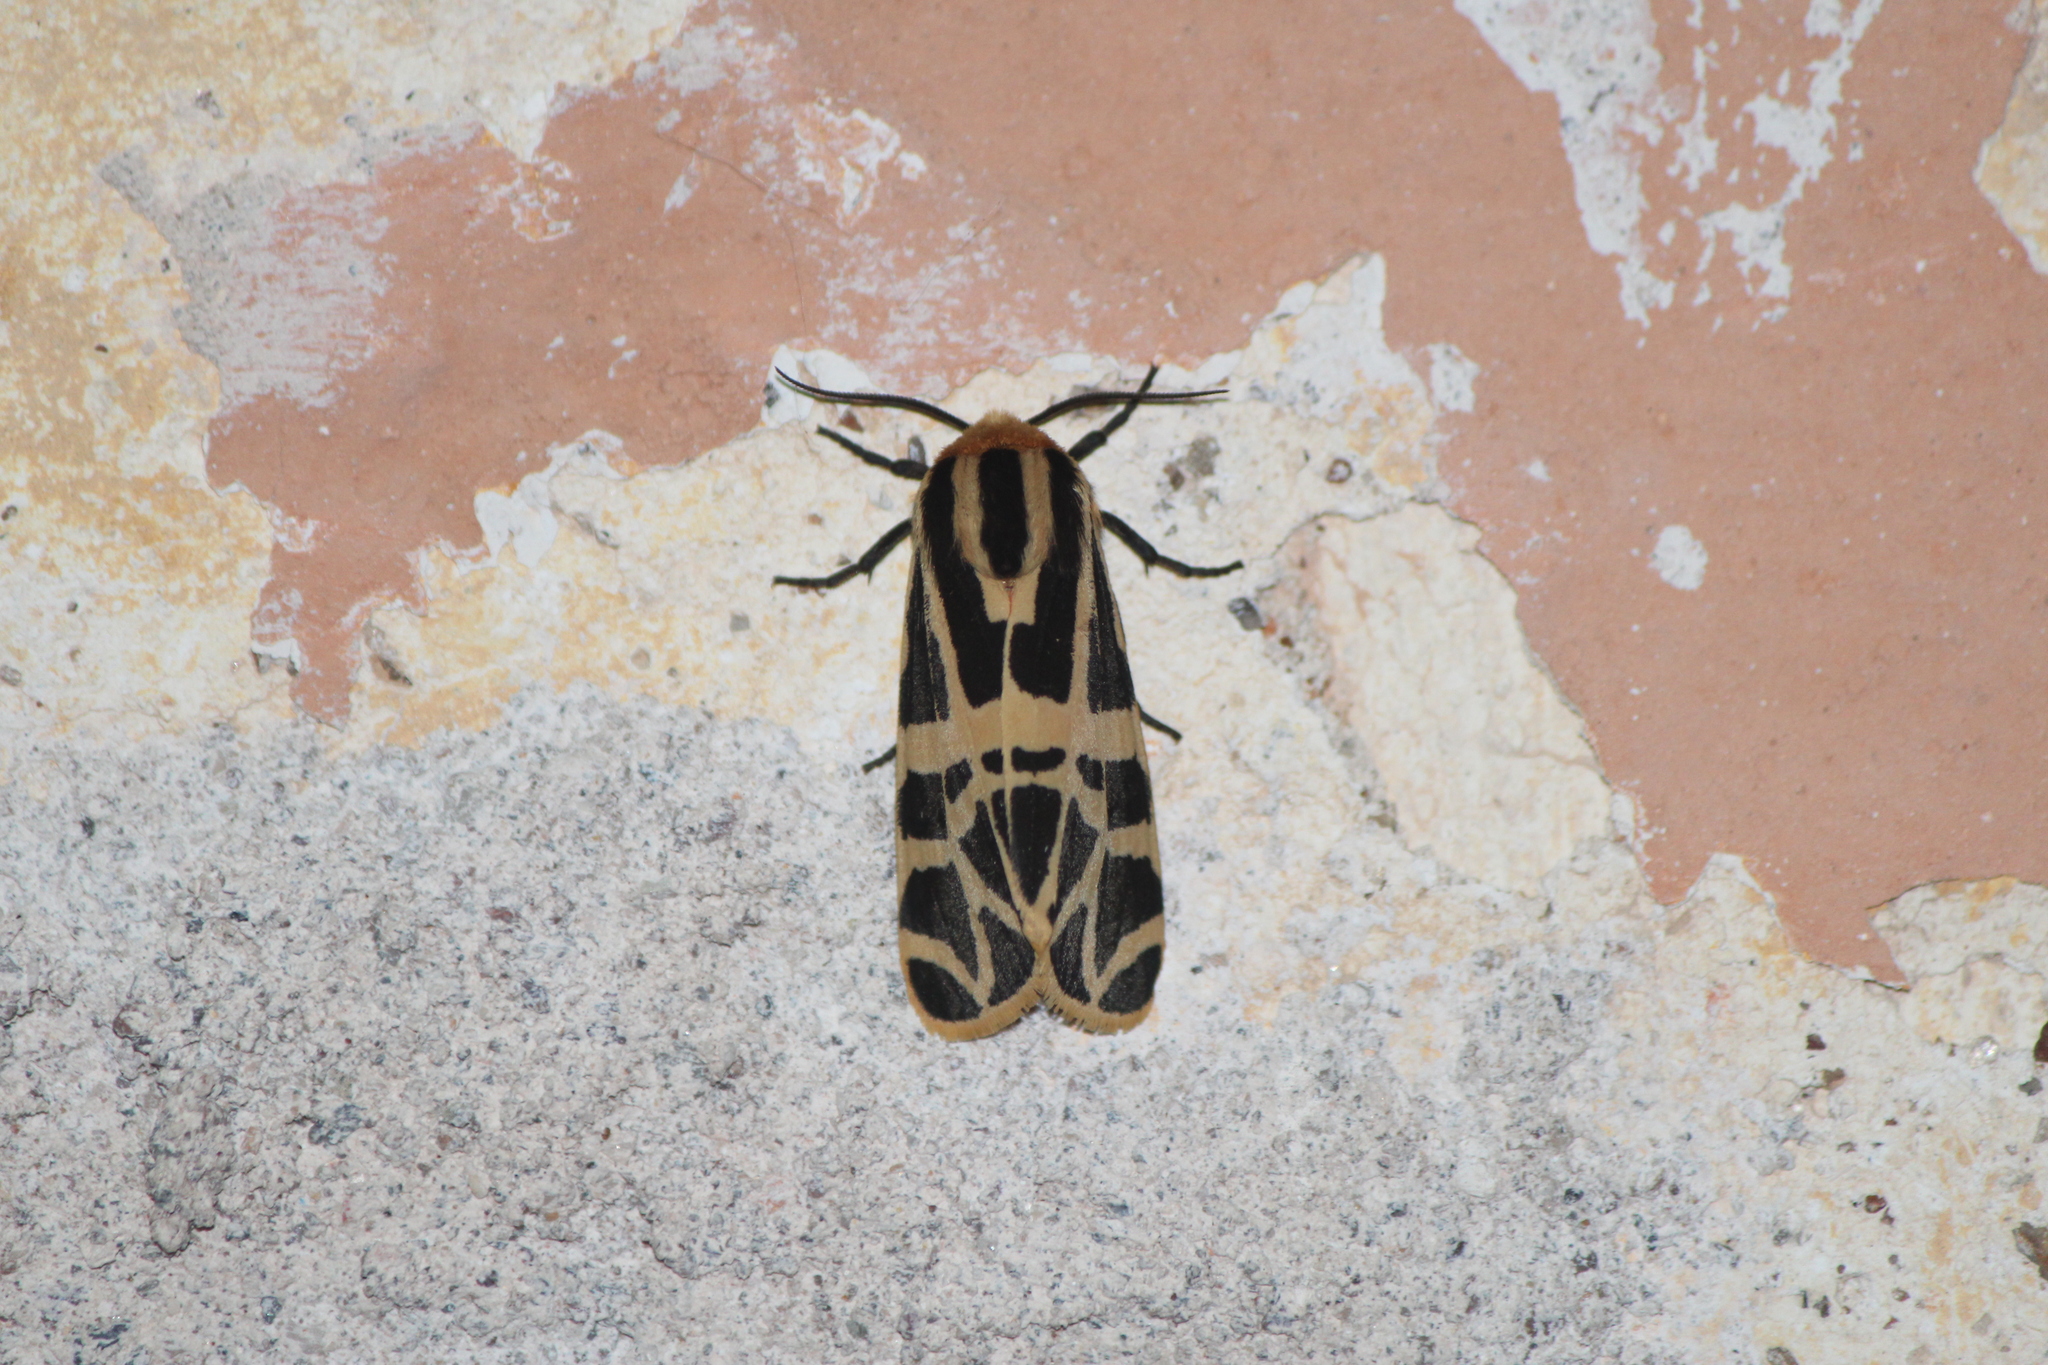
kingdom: Animalia
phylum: Arthropoda
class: Insecta
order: Lepidoptera
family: Erebidae
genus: Apantesis
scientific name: Apantesis
